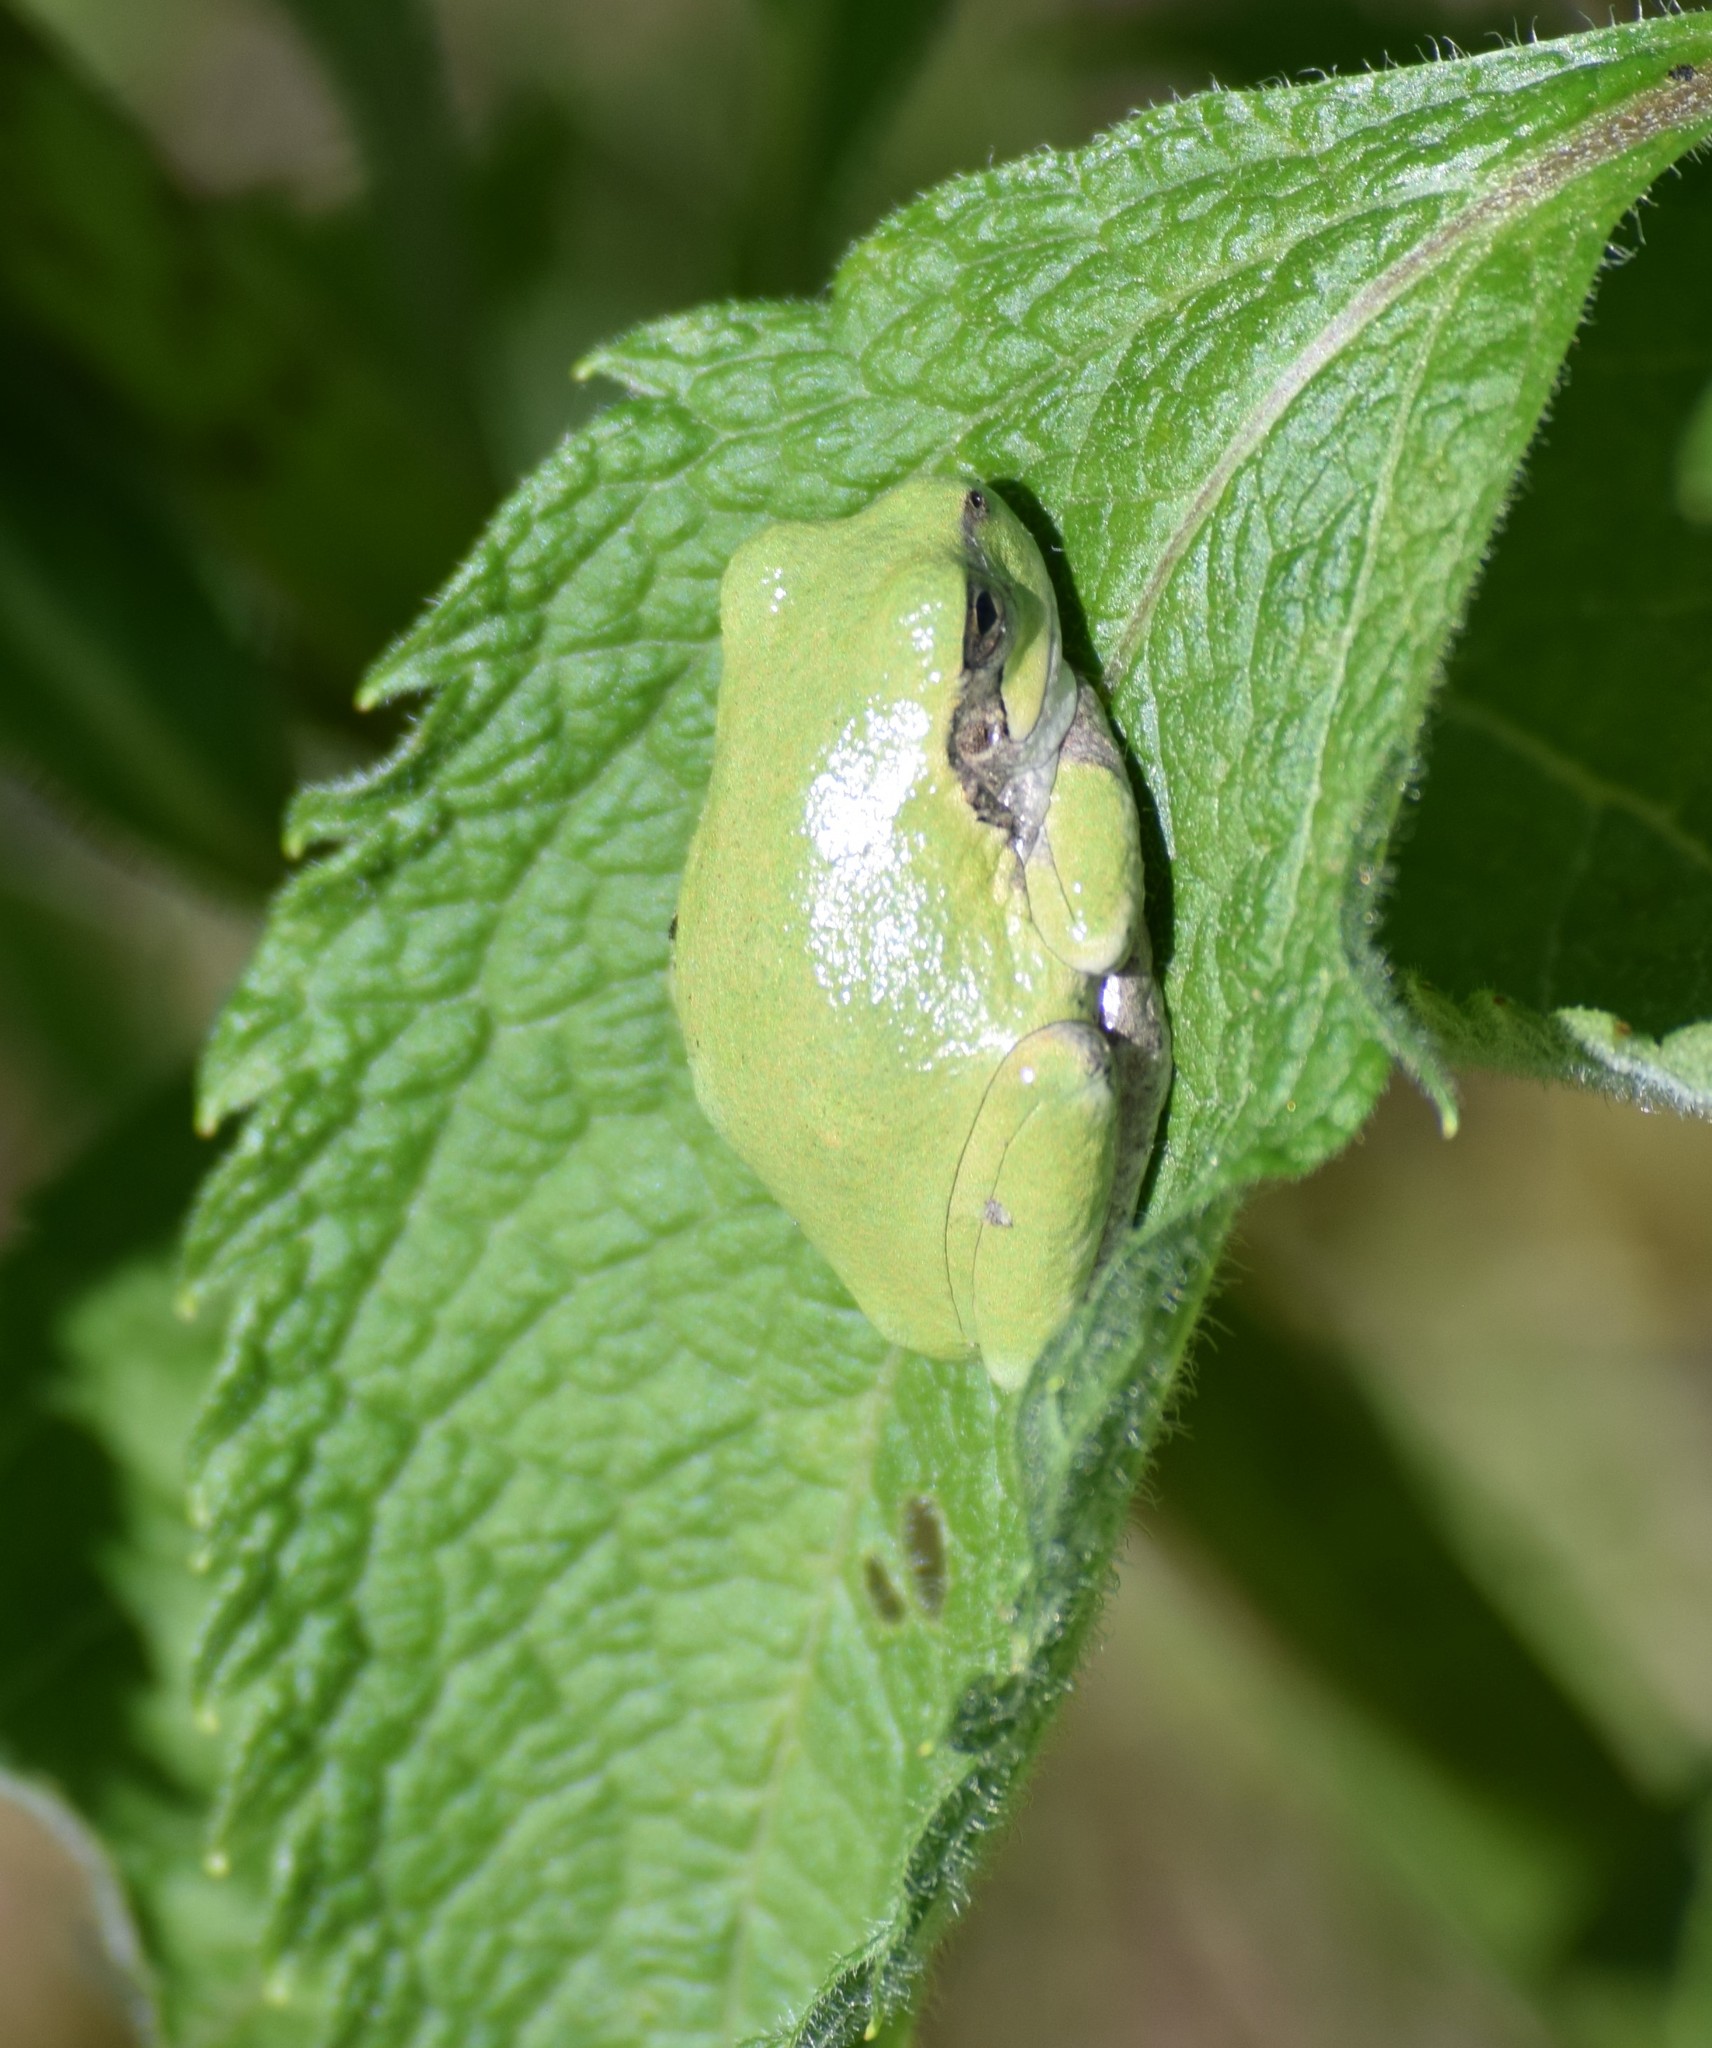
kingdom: Animalia
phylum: Chordata
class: Amphibia
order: Anura
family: Hylidae
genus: Hyla
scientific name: Hyla
